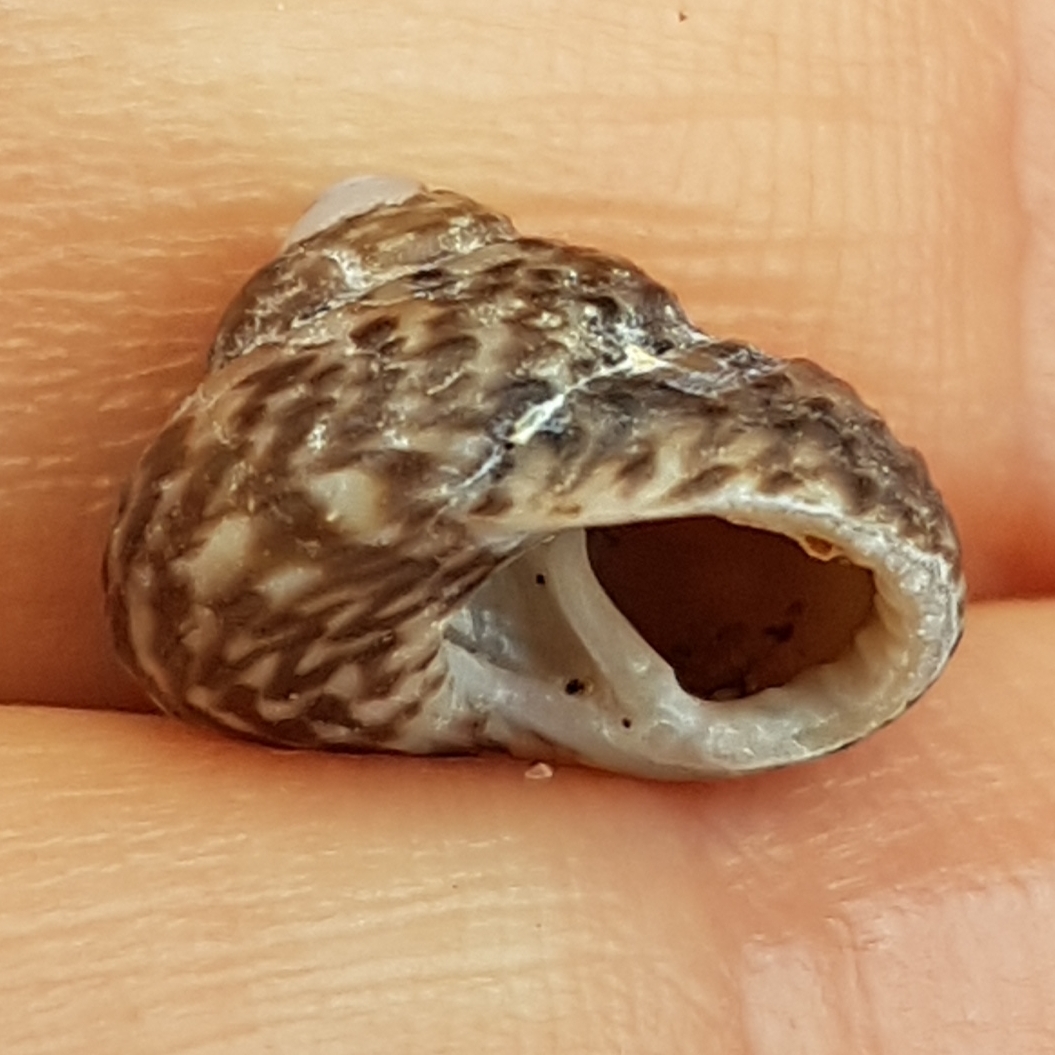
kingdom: Animalia
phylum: Mollusca
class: Gastropoda
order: Trochida
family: Trochidae
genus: Clanculus
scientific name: Clanculus jussieui
